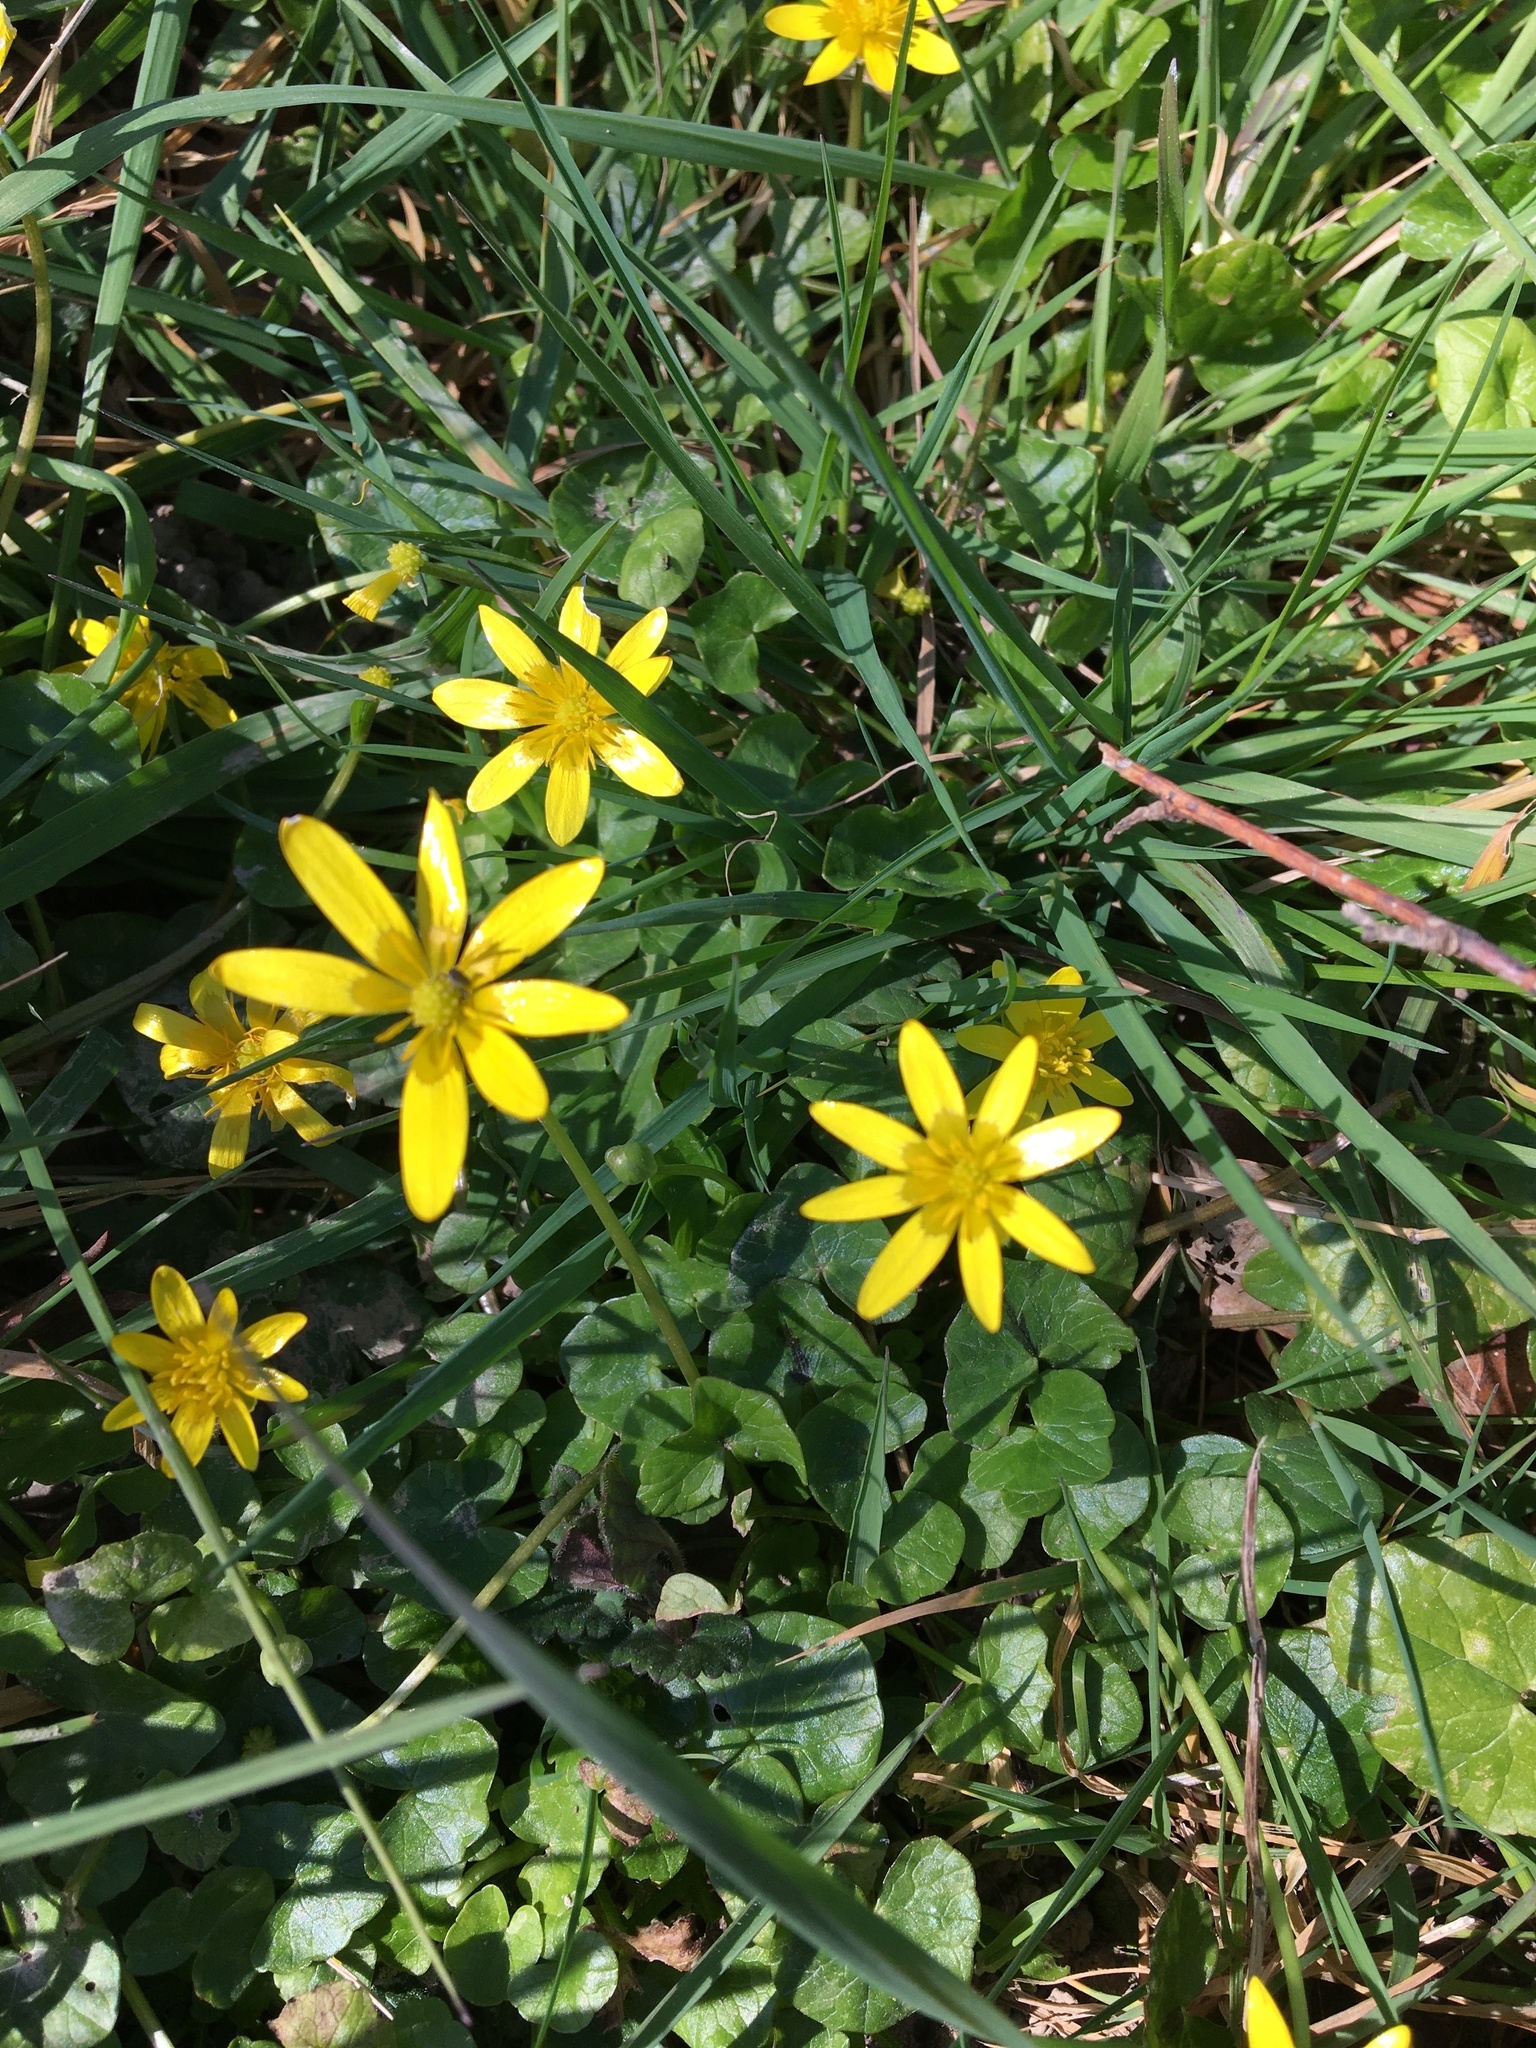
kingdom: Plantae
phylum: Tracheophyta
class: Magnoliopsida
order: Ranunculales
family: Ranunculaceae
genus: Ficaria
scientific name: Ficaria verna
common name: Lesser celandine
